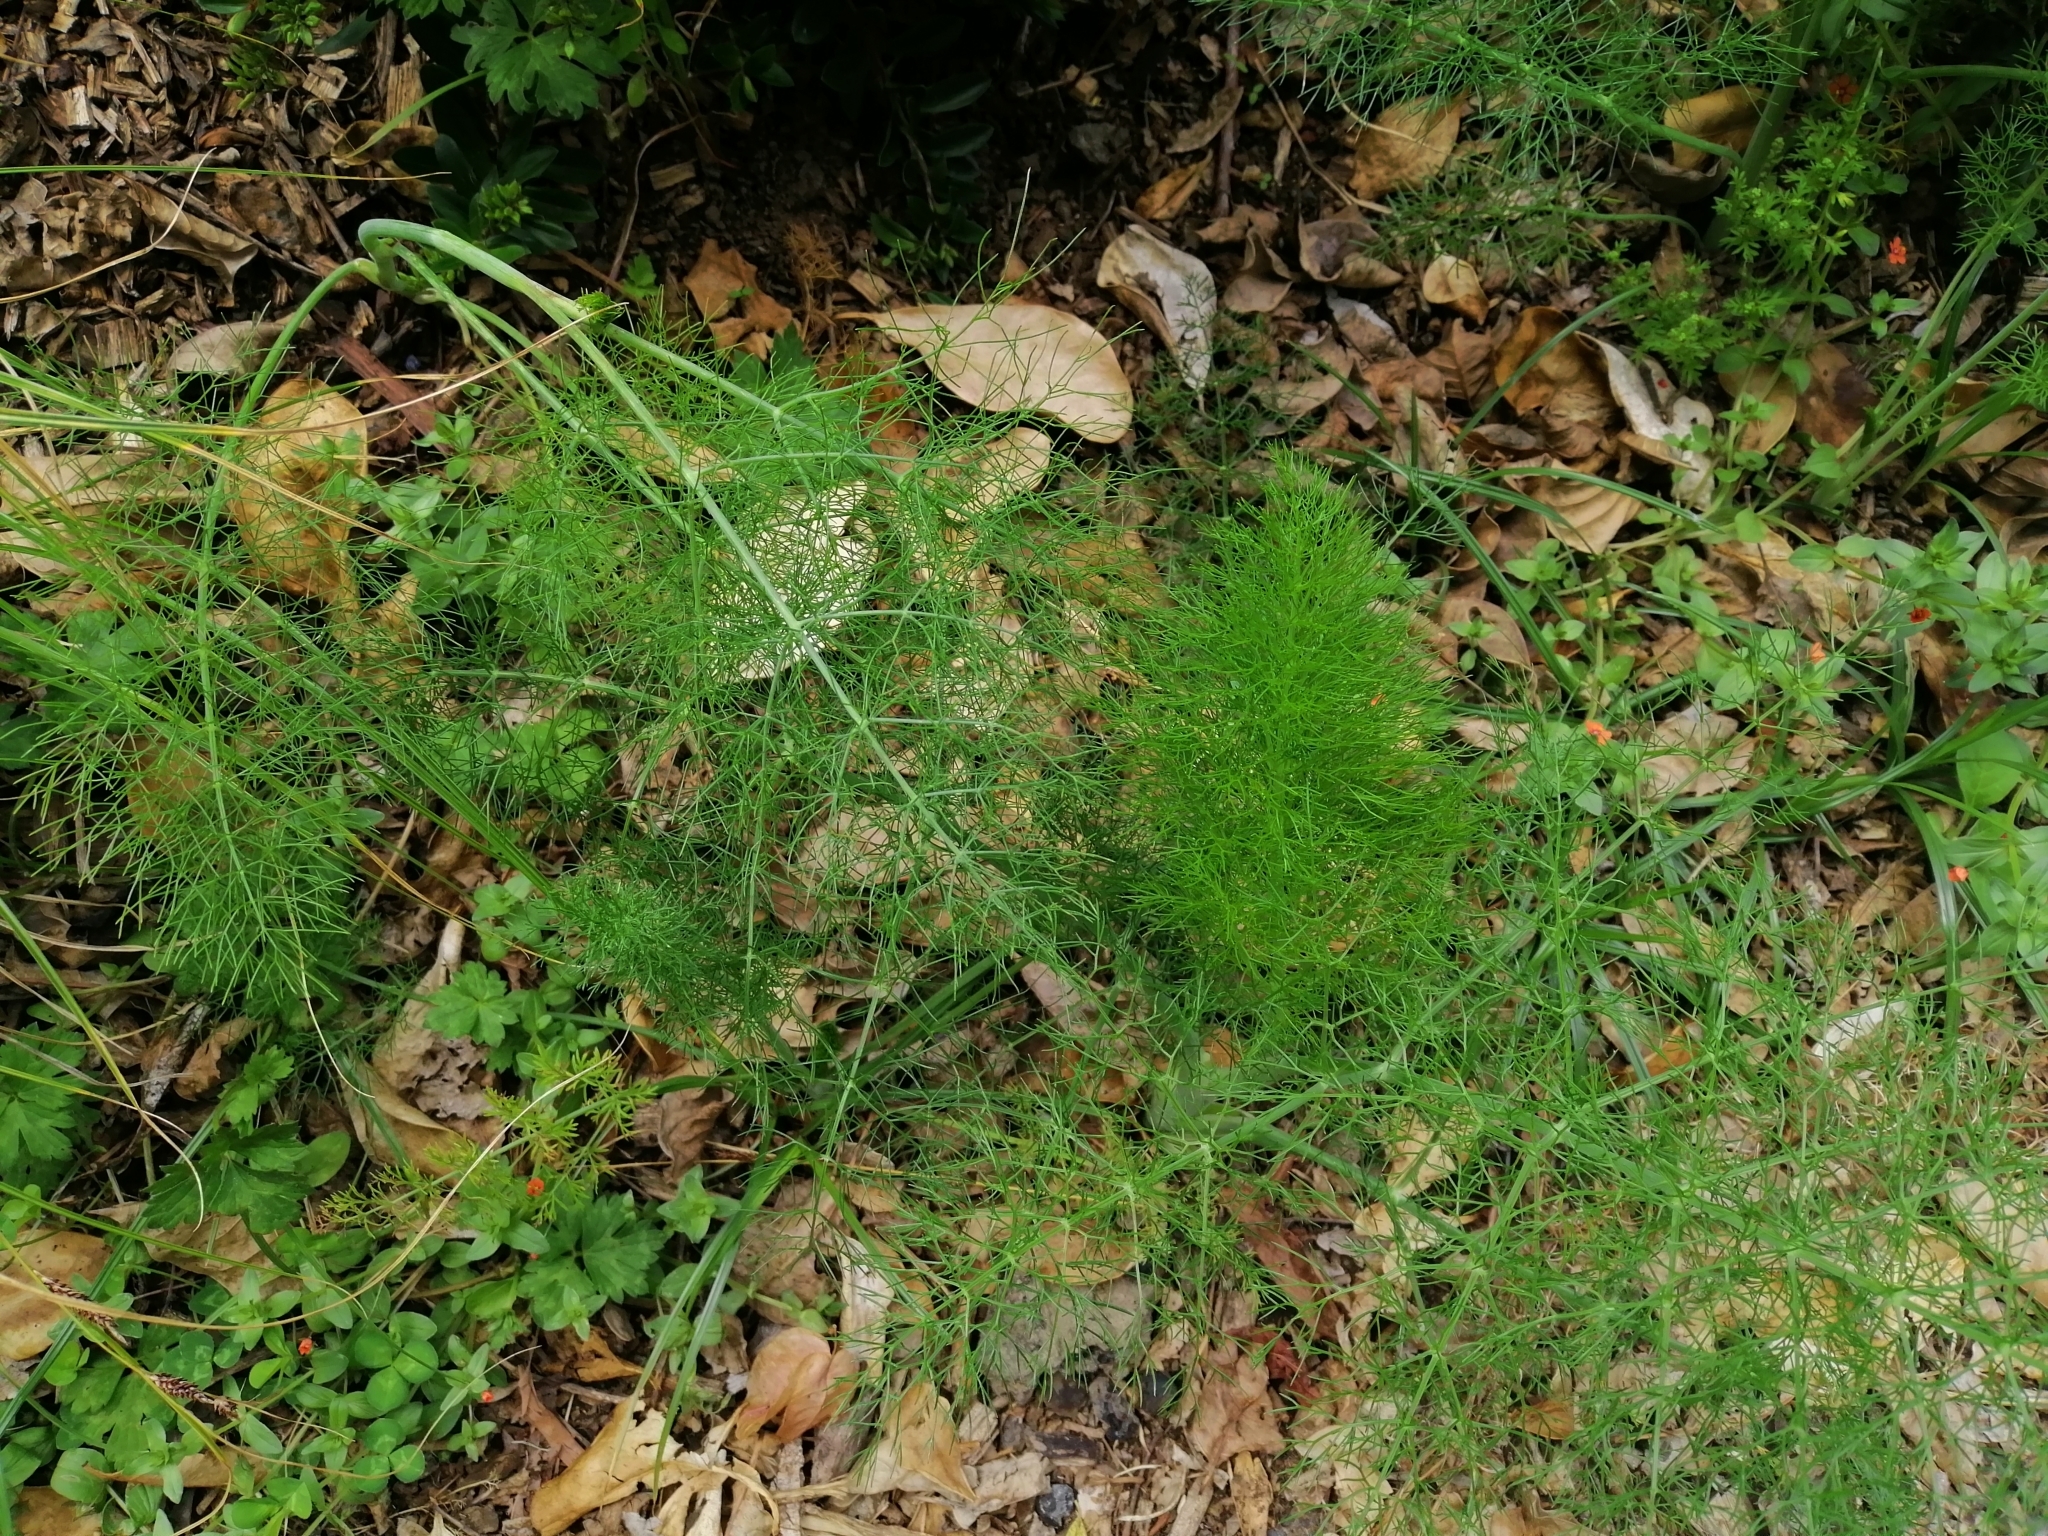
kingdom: Plantae
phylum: Tracheophyta
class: Magnoliopsida
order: Apiales
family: Apiaceae
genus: Foeniculum
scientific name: Foeniculum vulgare
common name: Fennel
